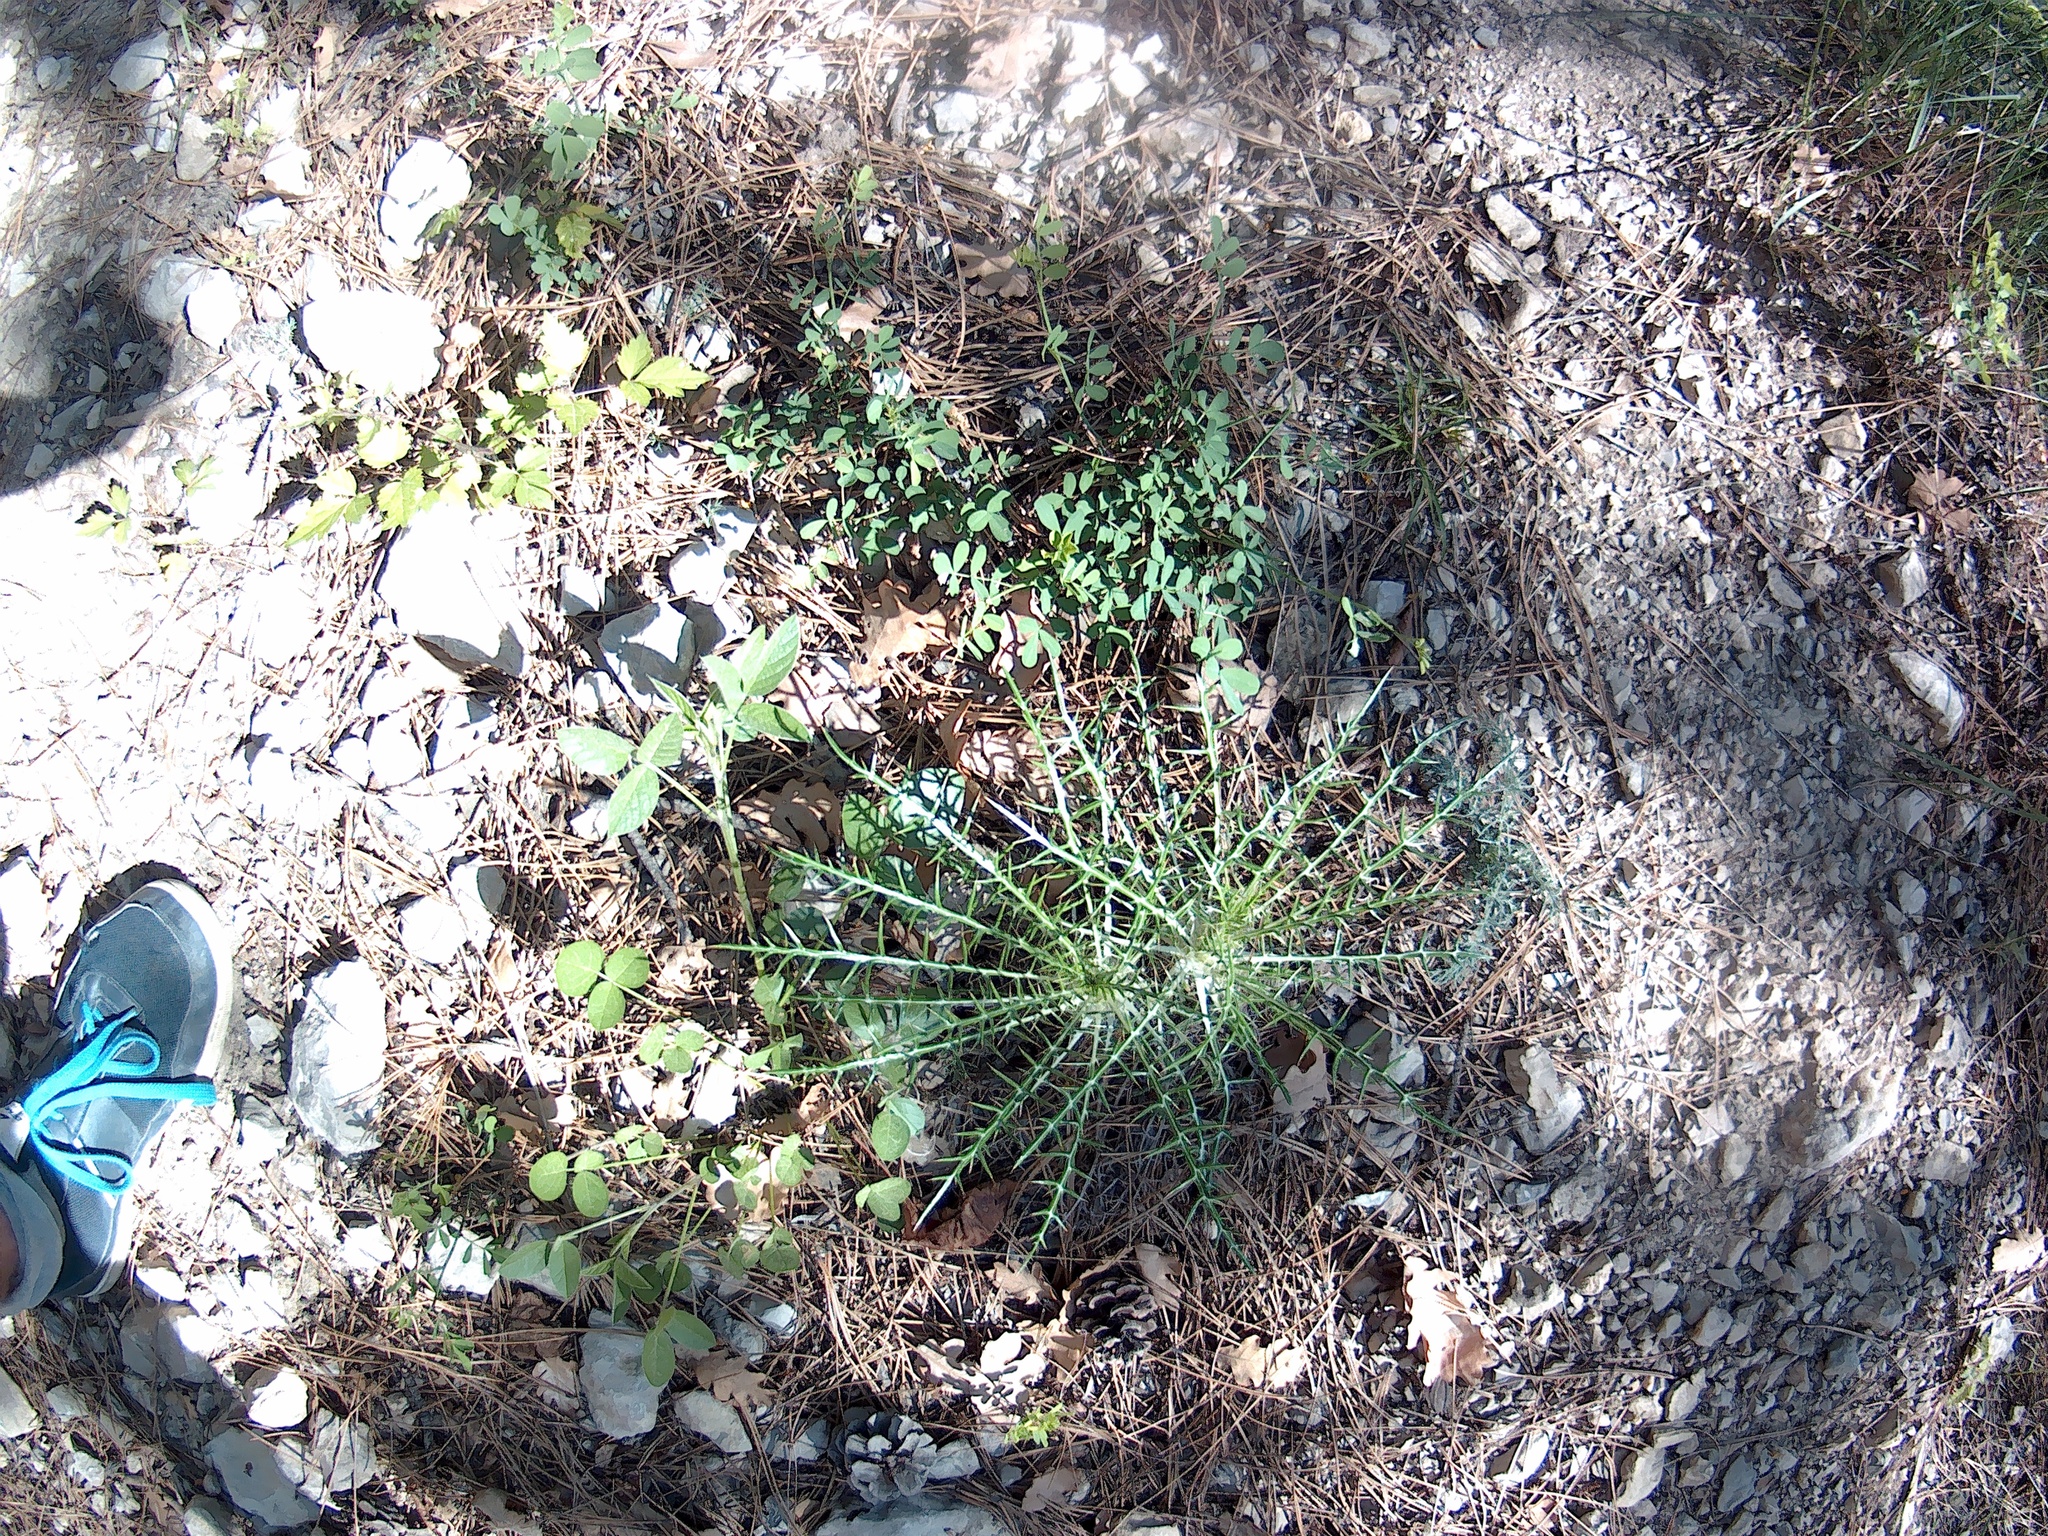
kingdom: Plantae
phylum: Tracheophyta
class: Magnoliopsida
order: Asterales
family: Asteraceae
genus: Ptilostemon
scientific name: Ptilostemon echinocephalus
